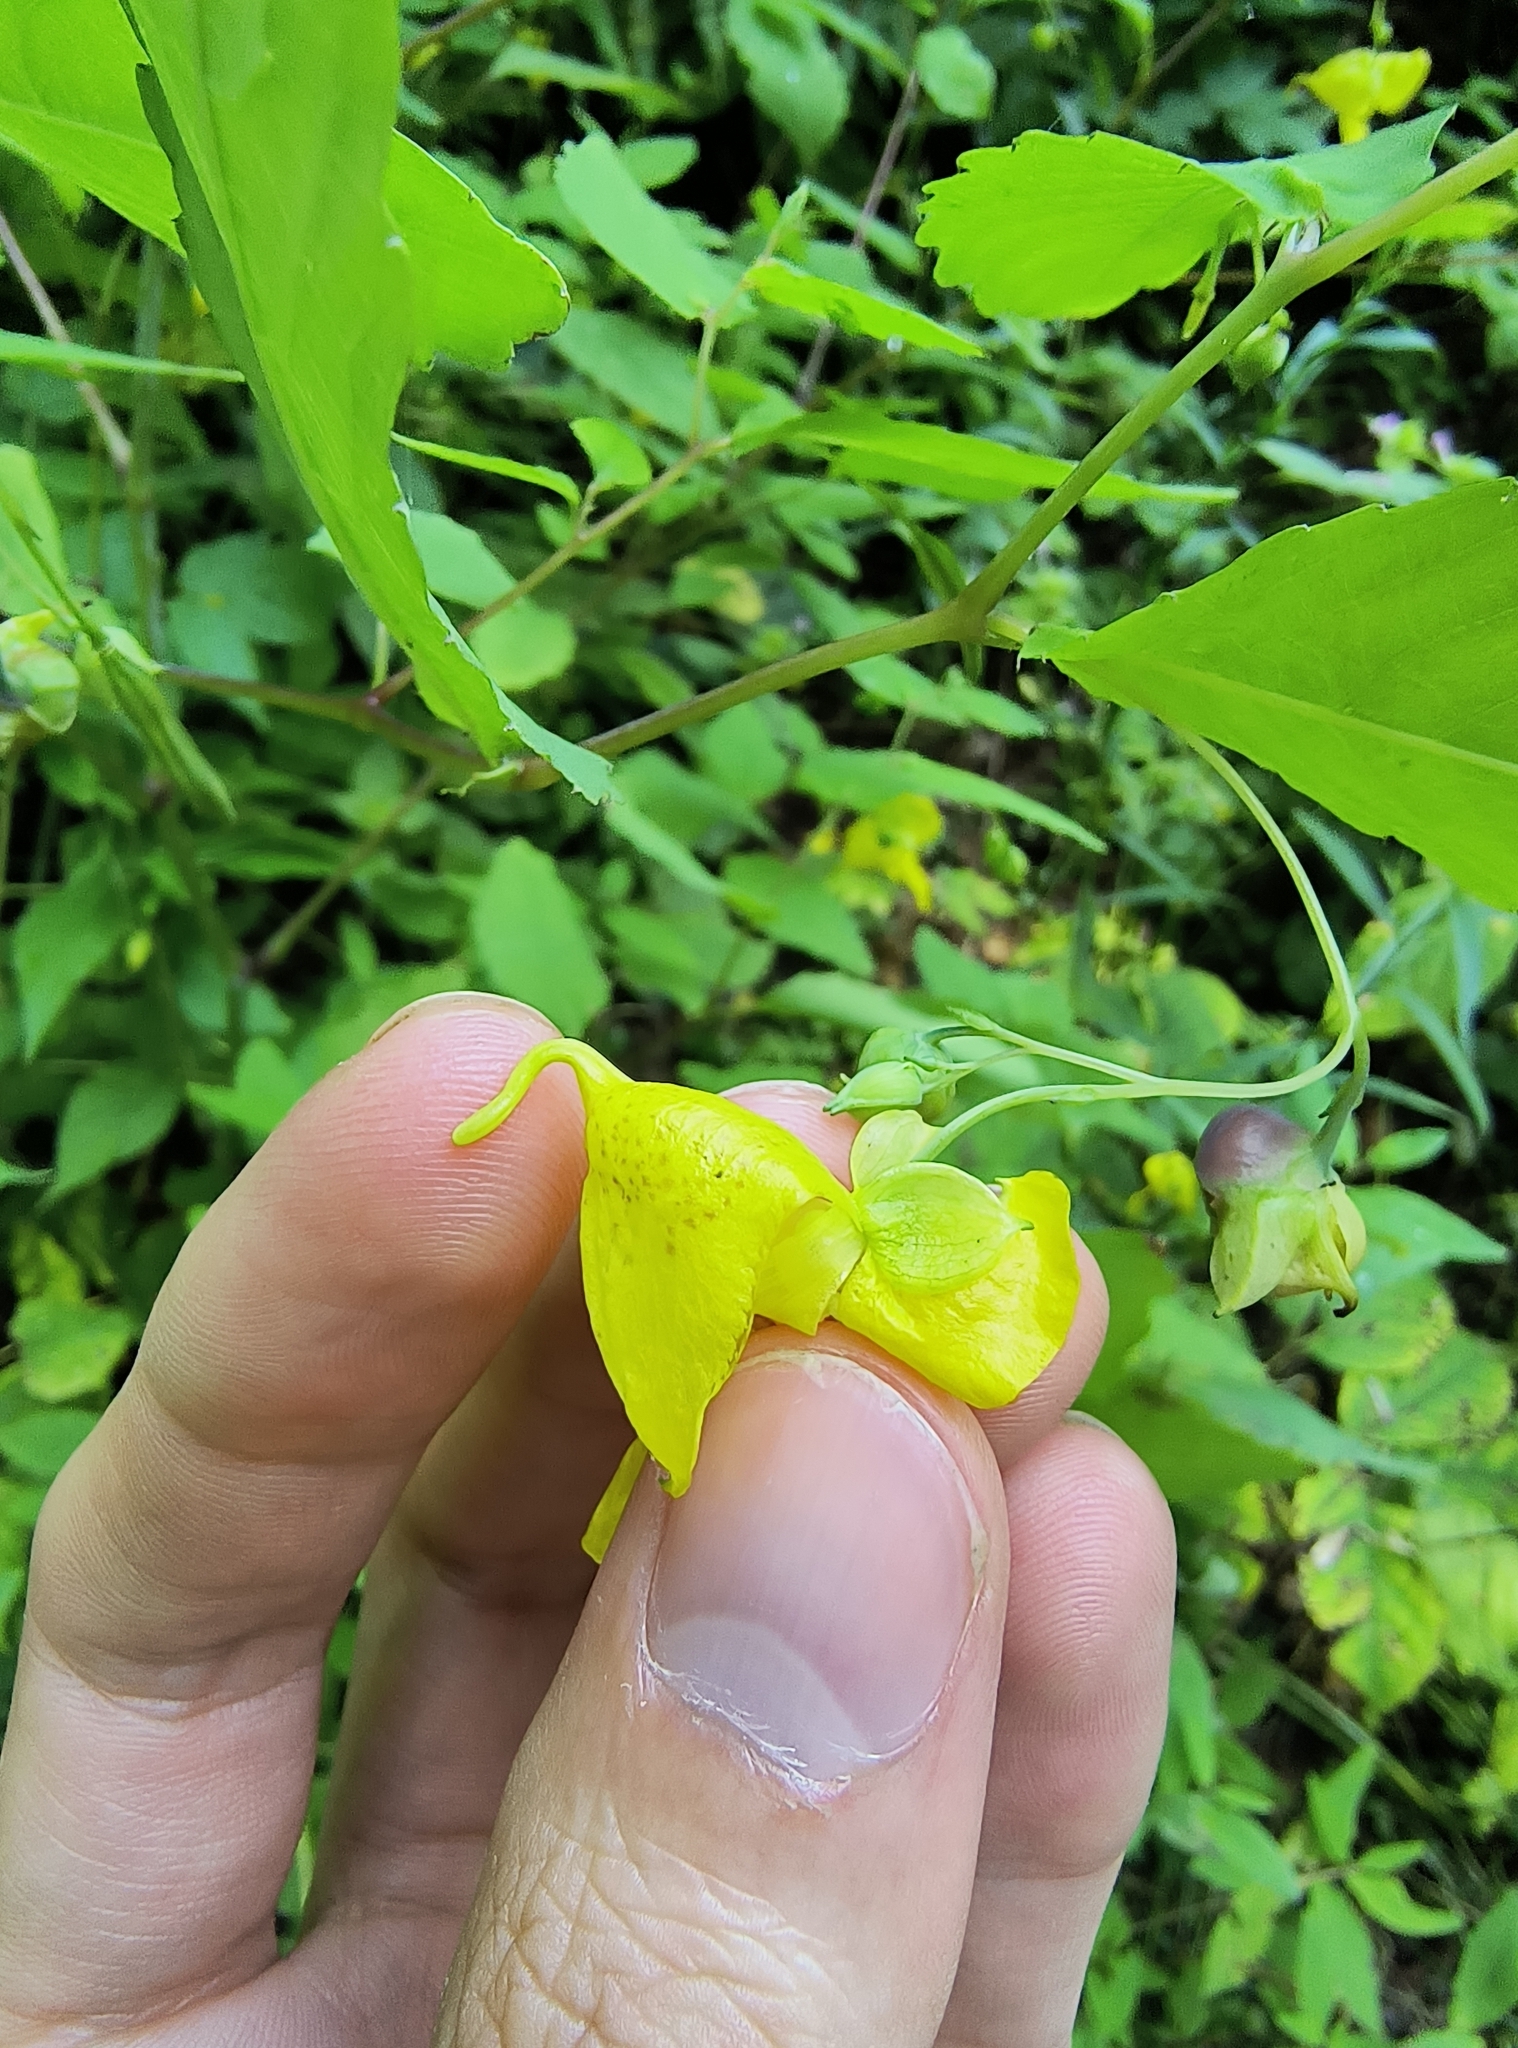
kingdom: Plantae
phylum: Tracheophyta
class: Magnoliopsida
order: Ericales
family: Balsaminaceae
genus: Impatiens
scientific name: Impatiens pallida
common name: Pale snapweed
